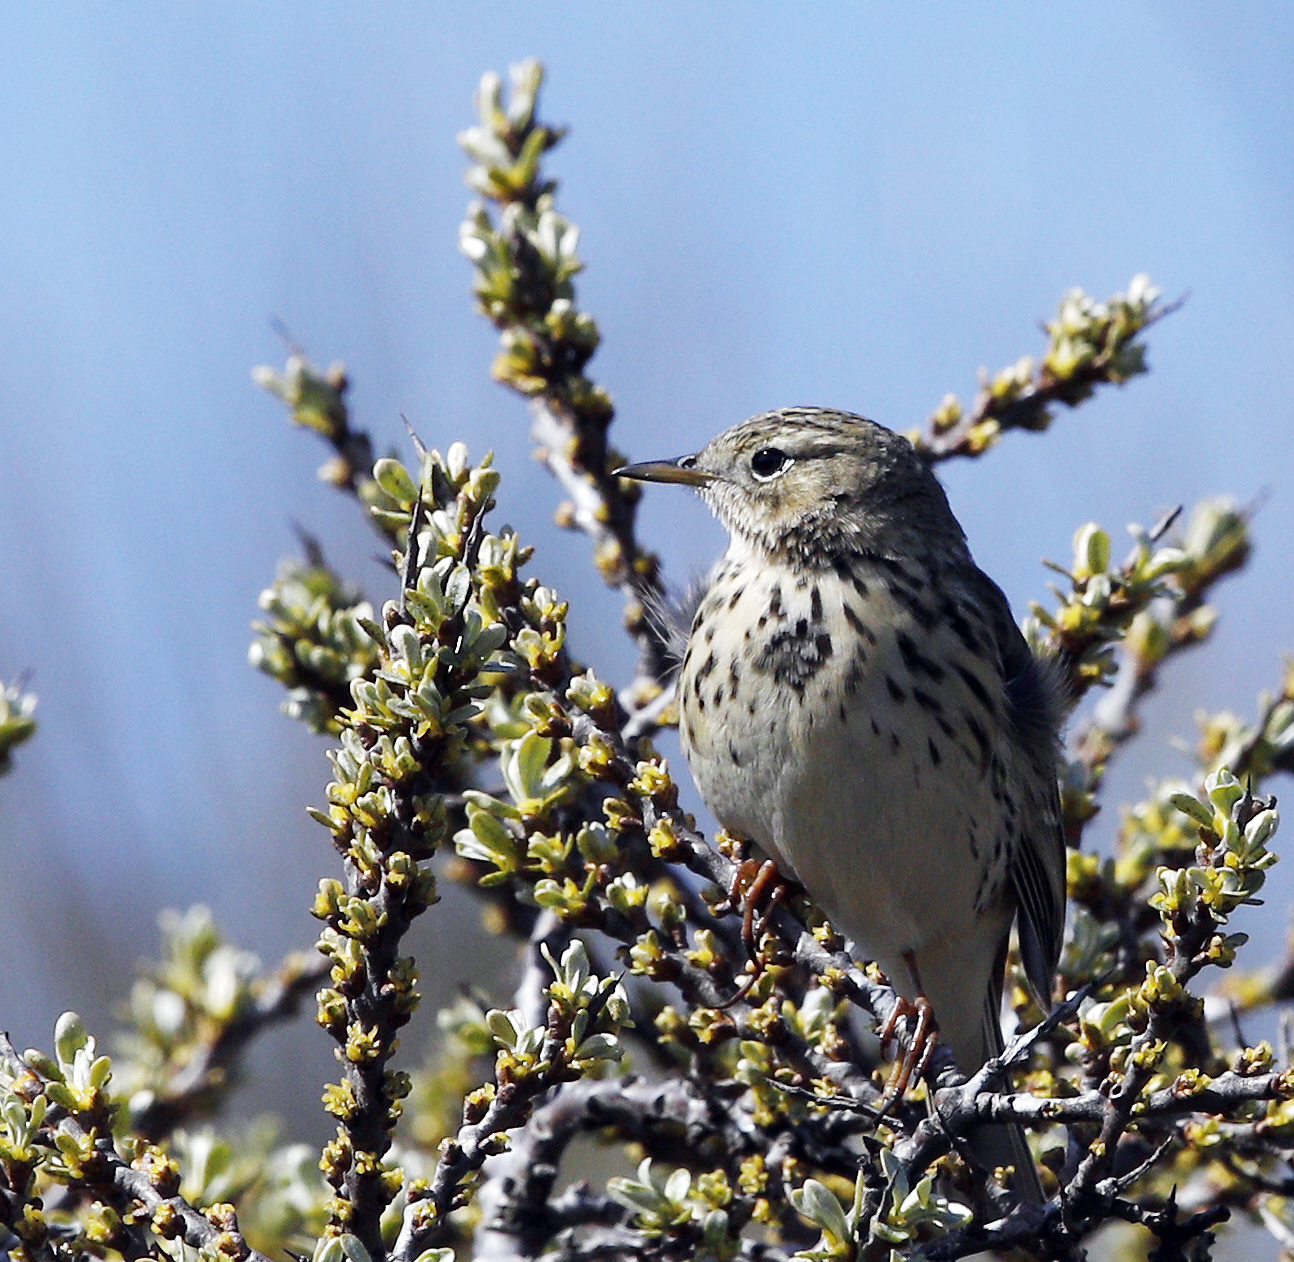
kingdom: Animalia
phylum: Chordata
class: Aves
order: Passeriformes
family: Motacillidae
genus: Anthus
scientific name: Anthus pratensis
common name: Meadow pipit
